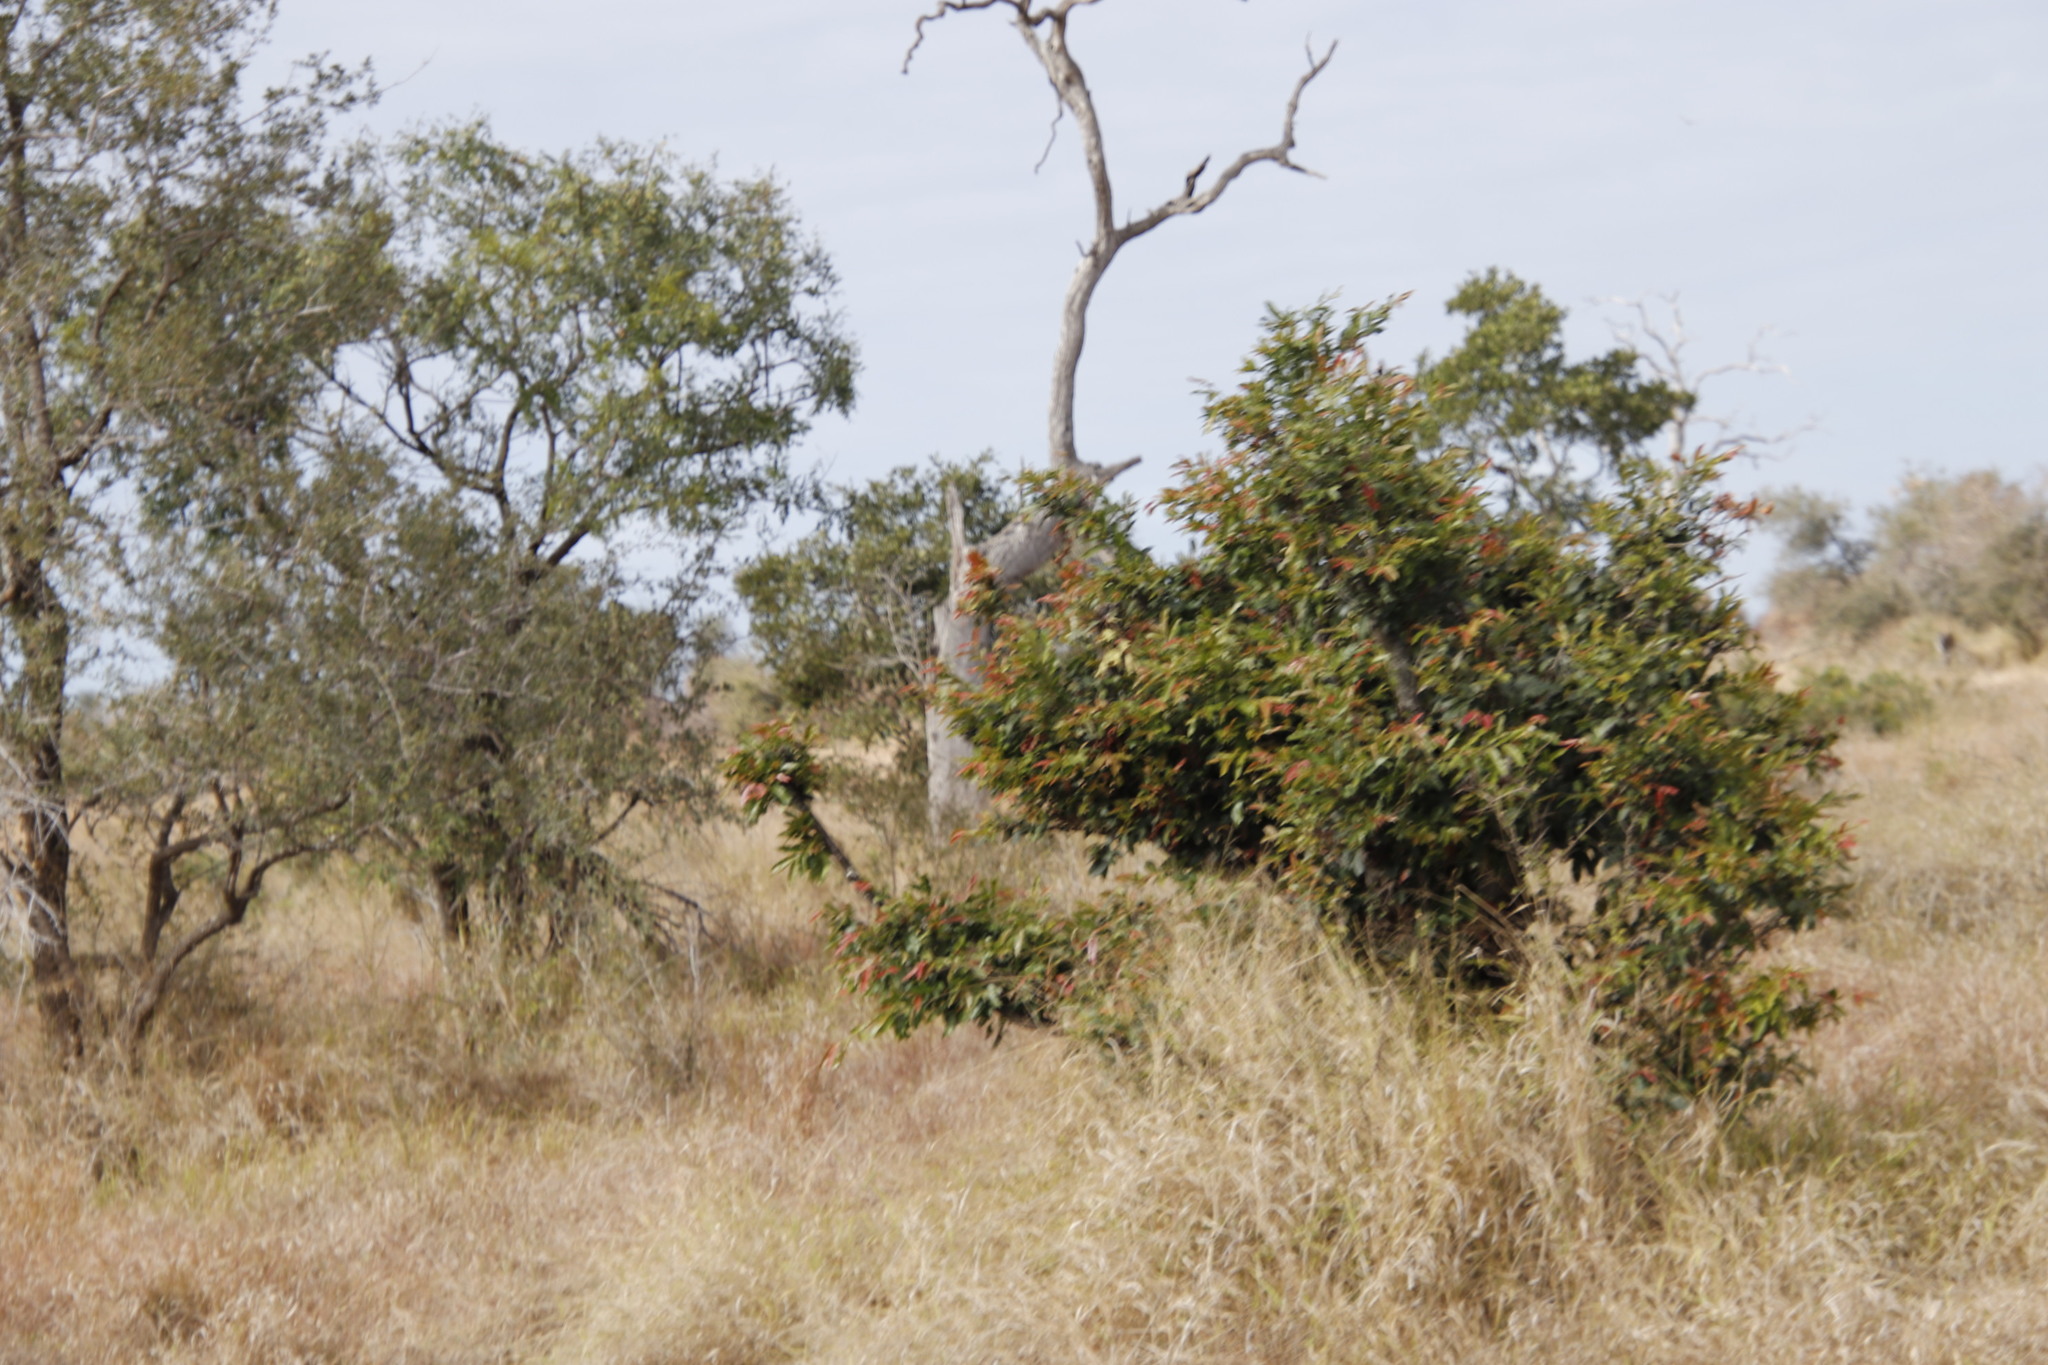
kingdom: Plantae
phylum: Tracheophyta
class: Magnoliopsida
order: Ericales
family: Ebenaceae
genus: Diospyros
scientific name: Diospyros mespiliformis
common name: Ebony diospyros
